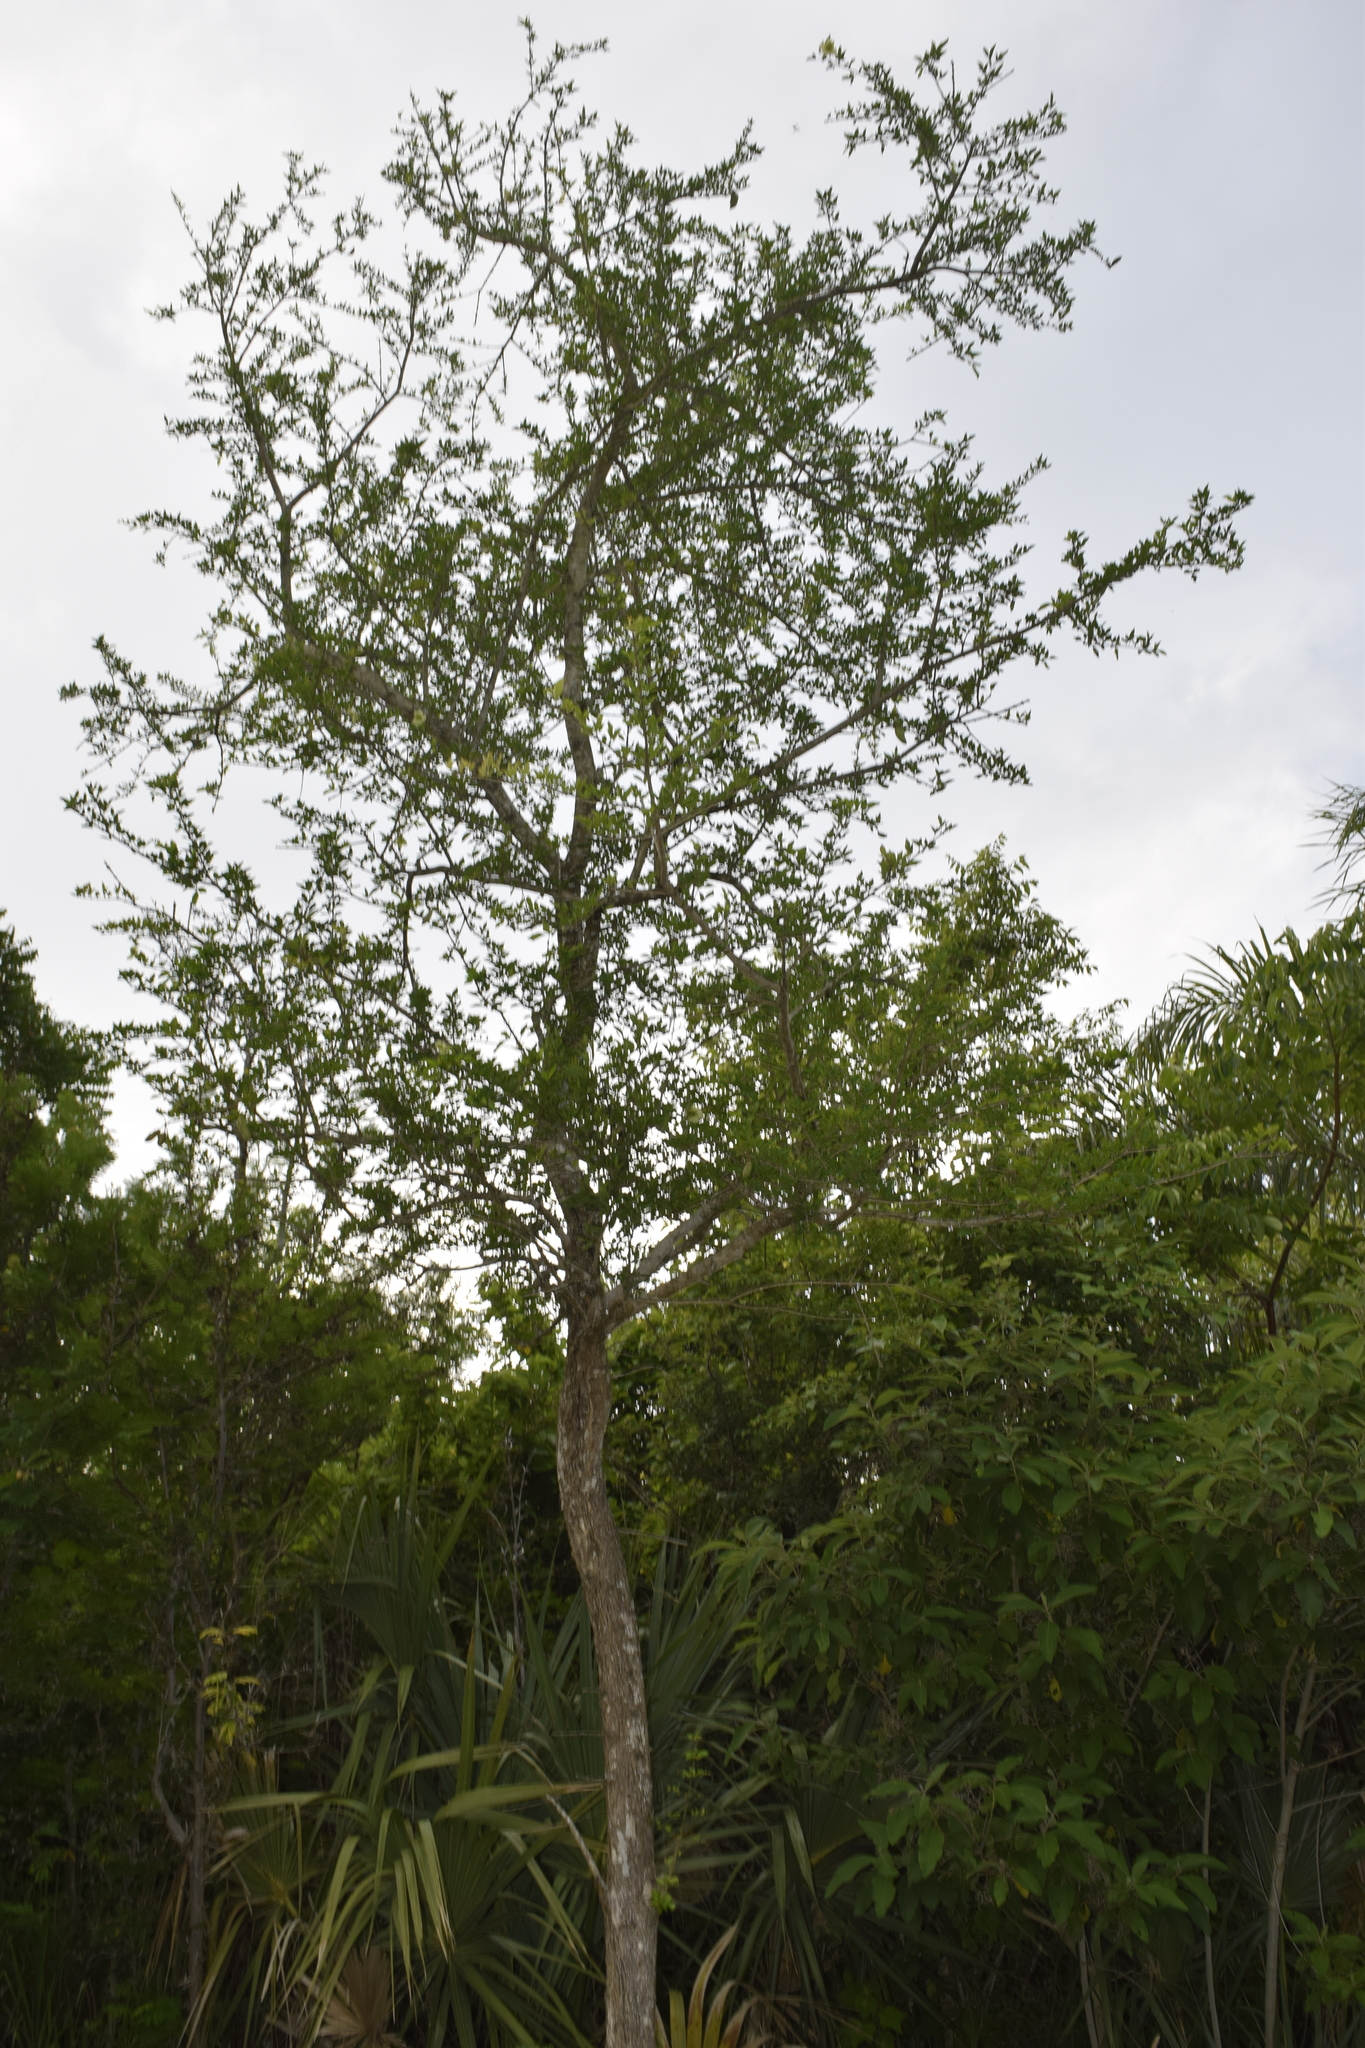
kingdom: Plantae
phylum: Tracheophyta
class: Magnoliopsida
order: Lamiales
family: Bignoniaceae
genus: Parmentiera
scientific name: Parmentiera aculeata
